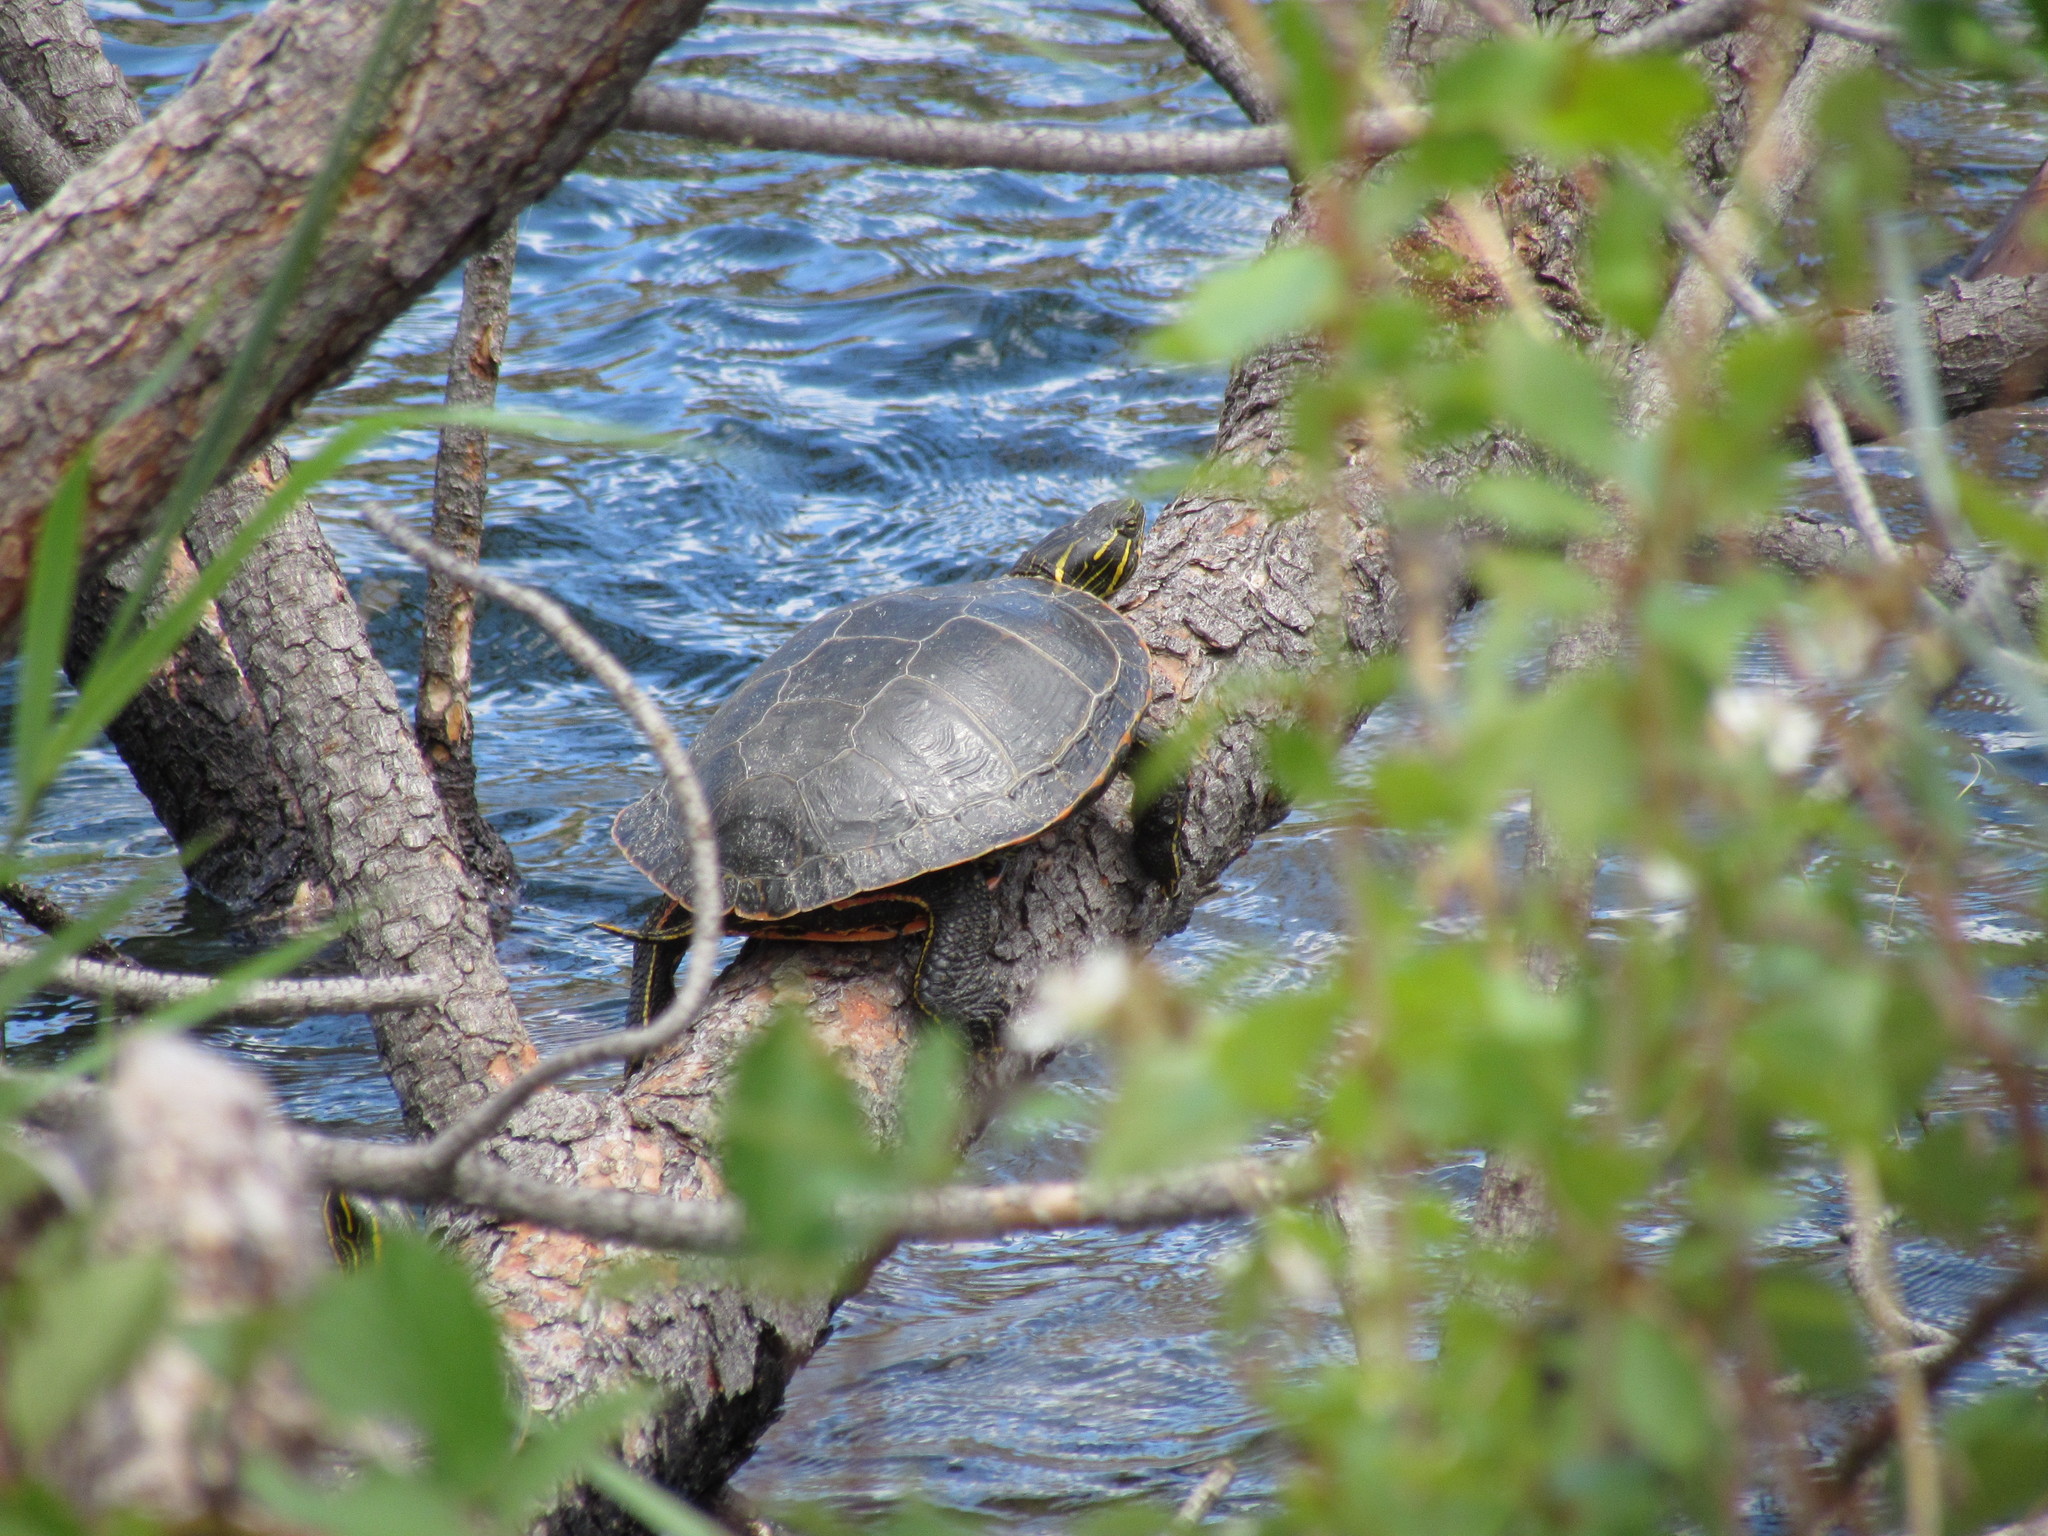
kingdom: Animalia
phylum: Chordata
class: Testudines
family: Emydidae
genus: Chrysemys
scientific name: Chrysemys picta
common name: Painted turtle
